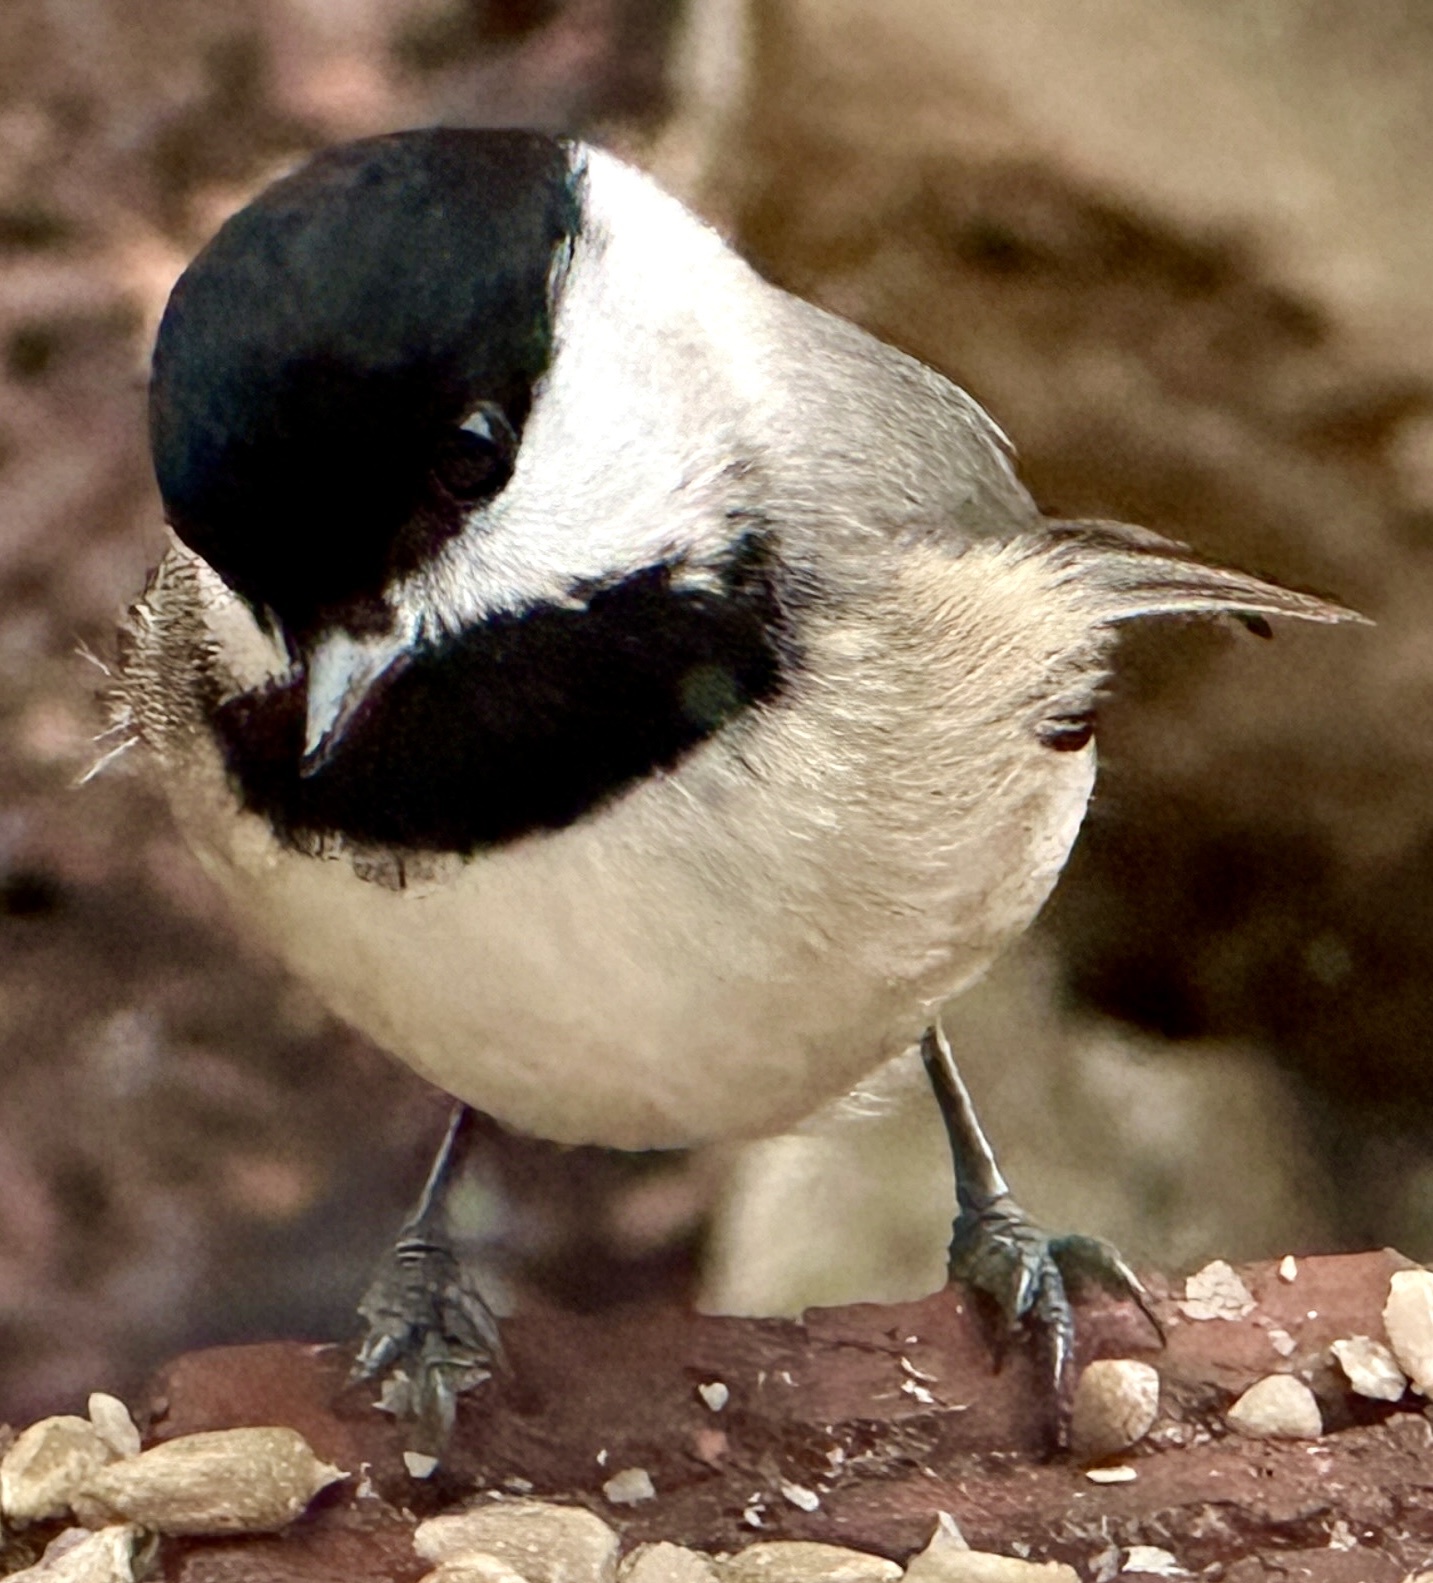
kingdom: Animalia
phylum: Chordata
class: Aves
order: Passeriformes
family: Paridae
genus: Poecile
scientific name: Poecile carolinensis
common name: Carolina chickadee
